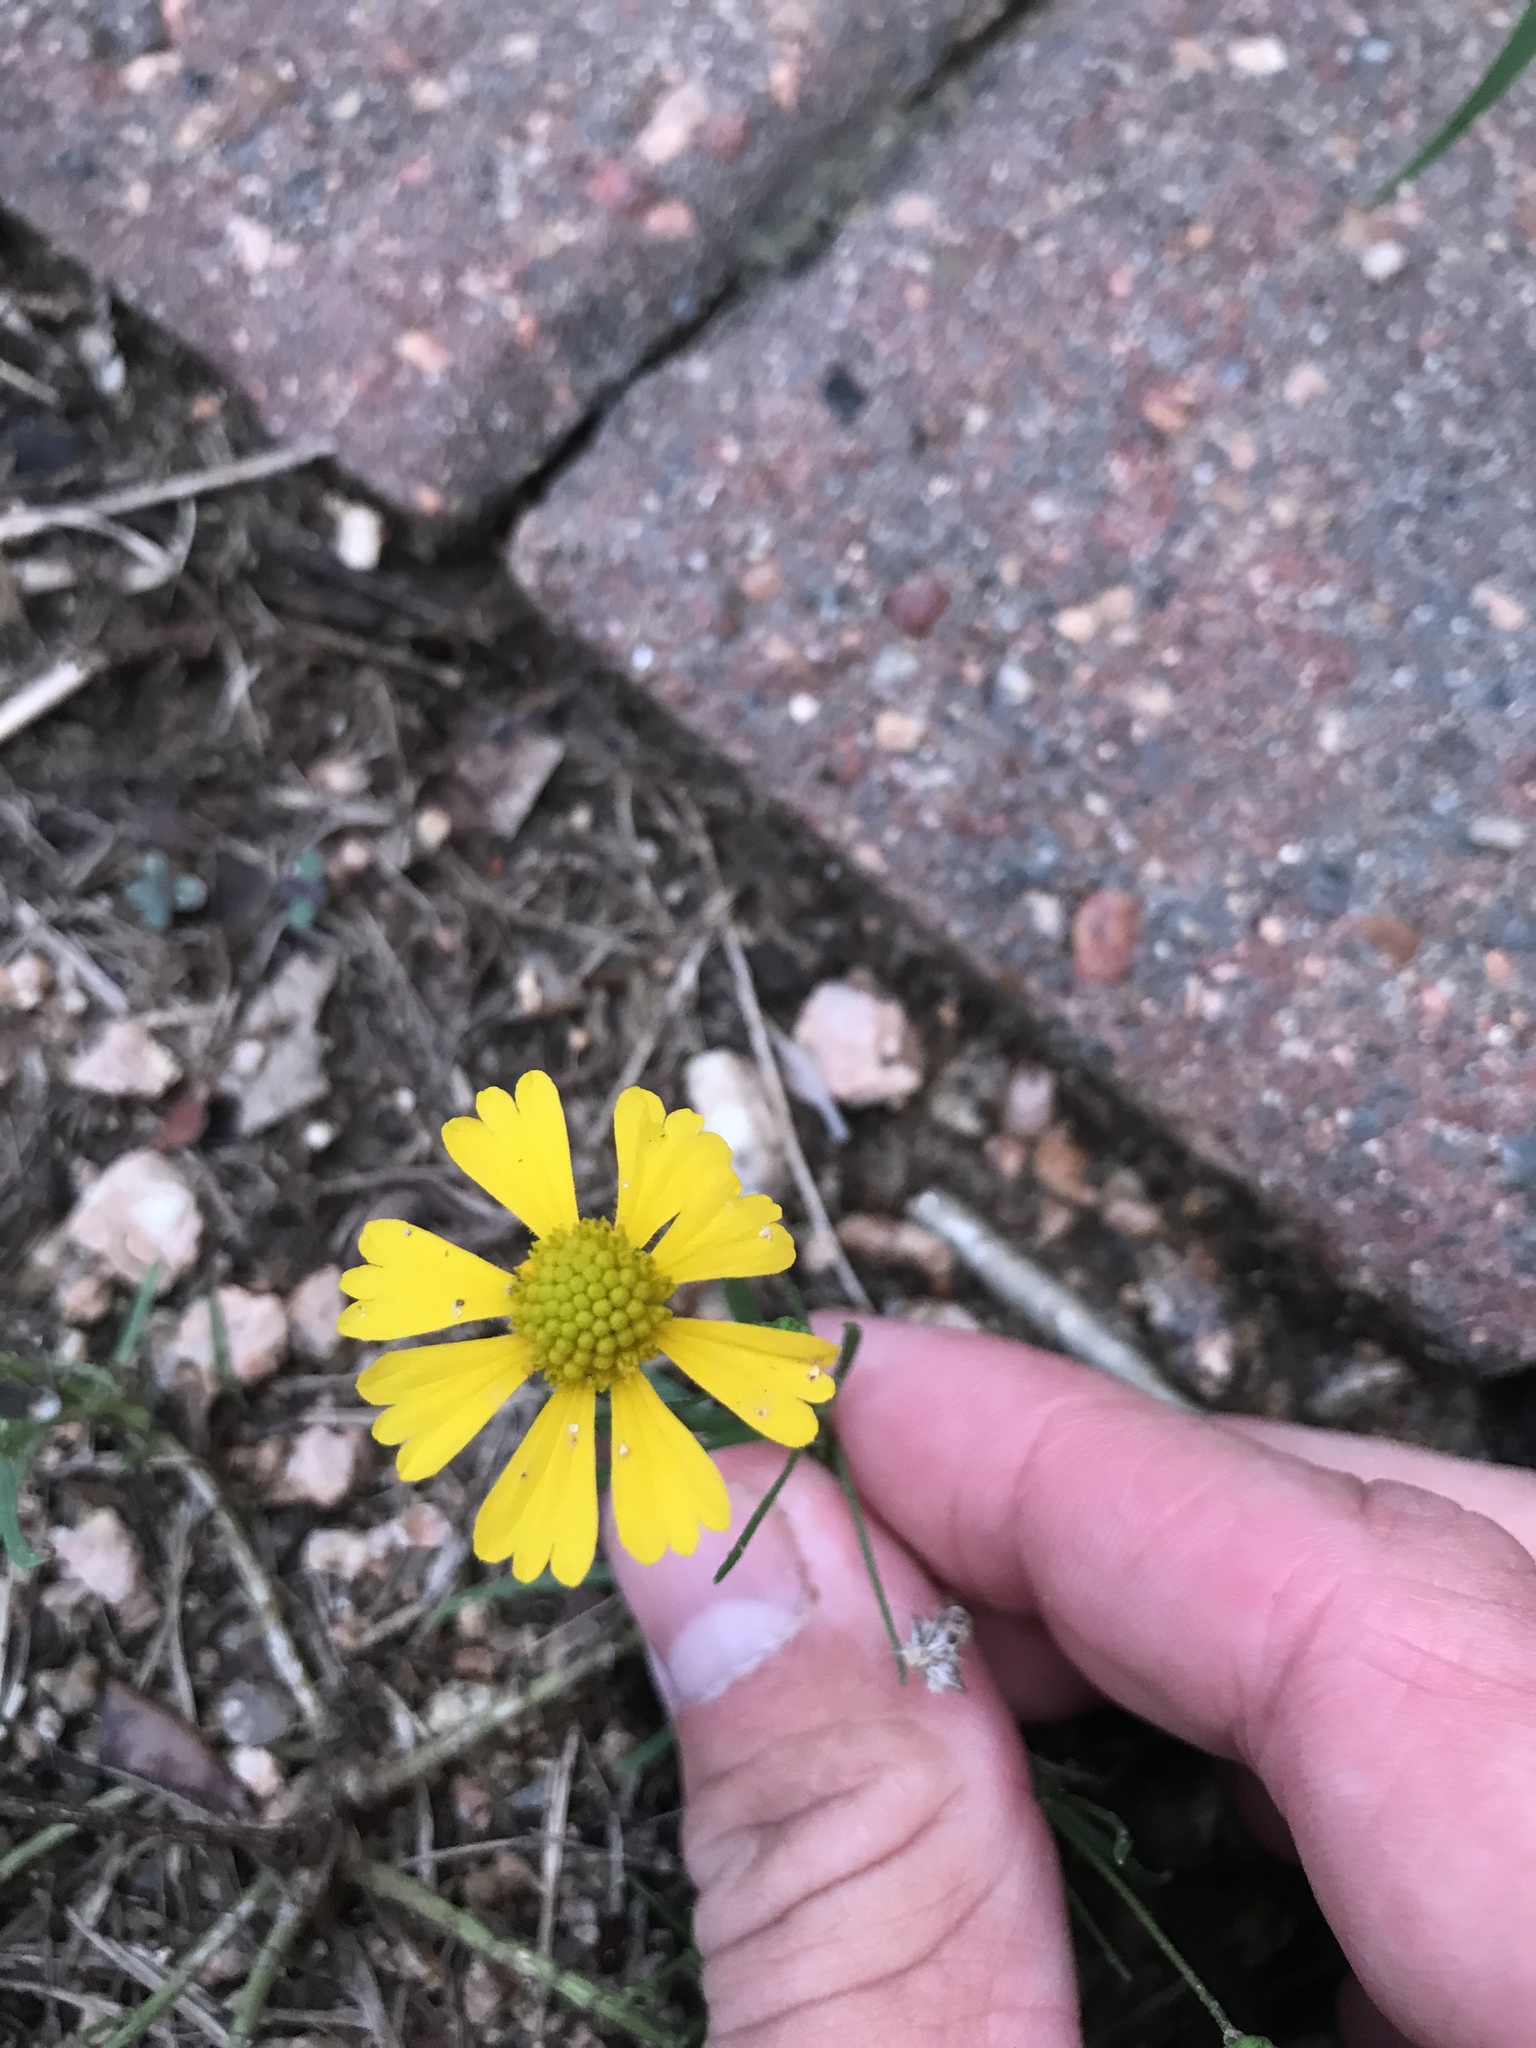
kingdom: Plantae
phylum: Tracheophyta
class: Magnoliopsida
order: Asterales
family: Asteraceae
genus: Helenium
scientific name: Helenium amarum
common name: Bitter sneezeweed
